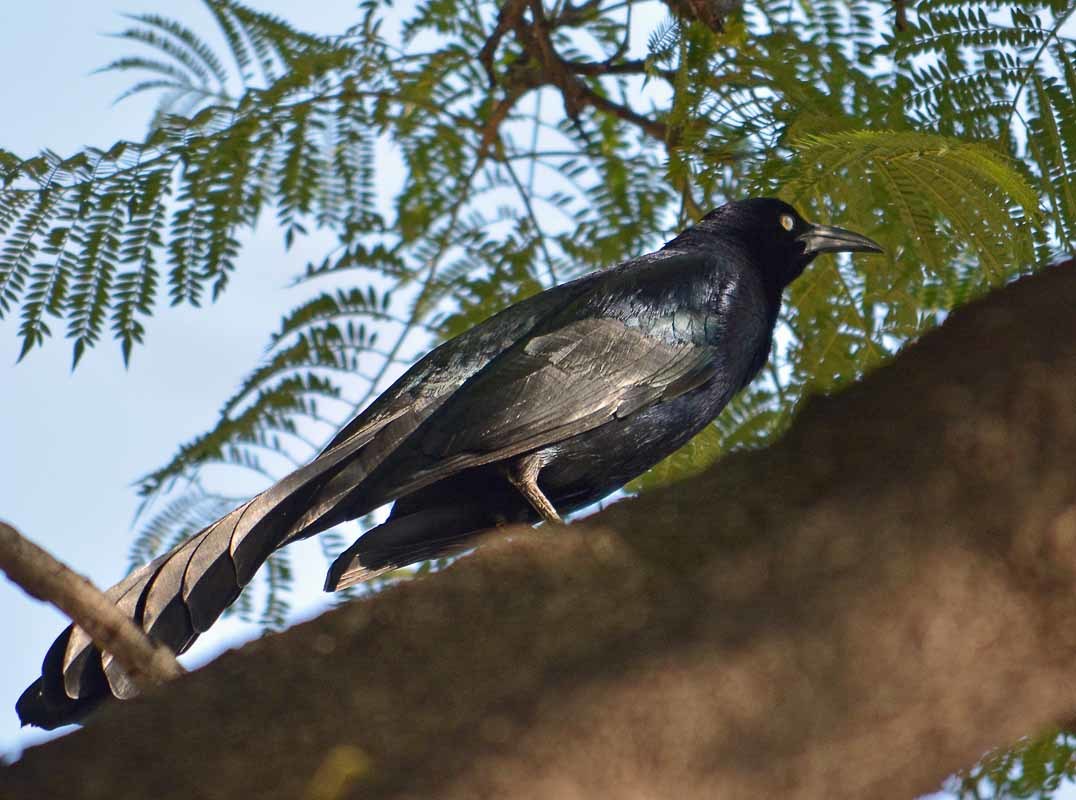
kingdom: Animalia
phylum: Chordata
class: Aves
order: Passeriformes
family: Icteridae
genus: Quiscalus
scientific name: Quiscalus mexicanus
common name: Great-tailed grackle
